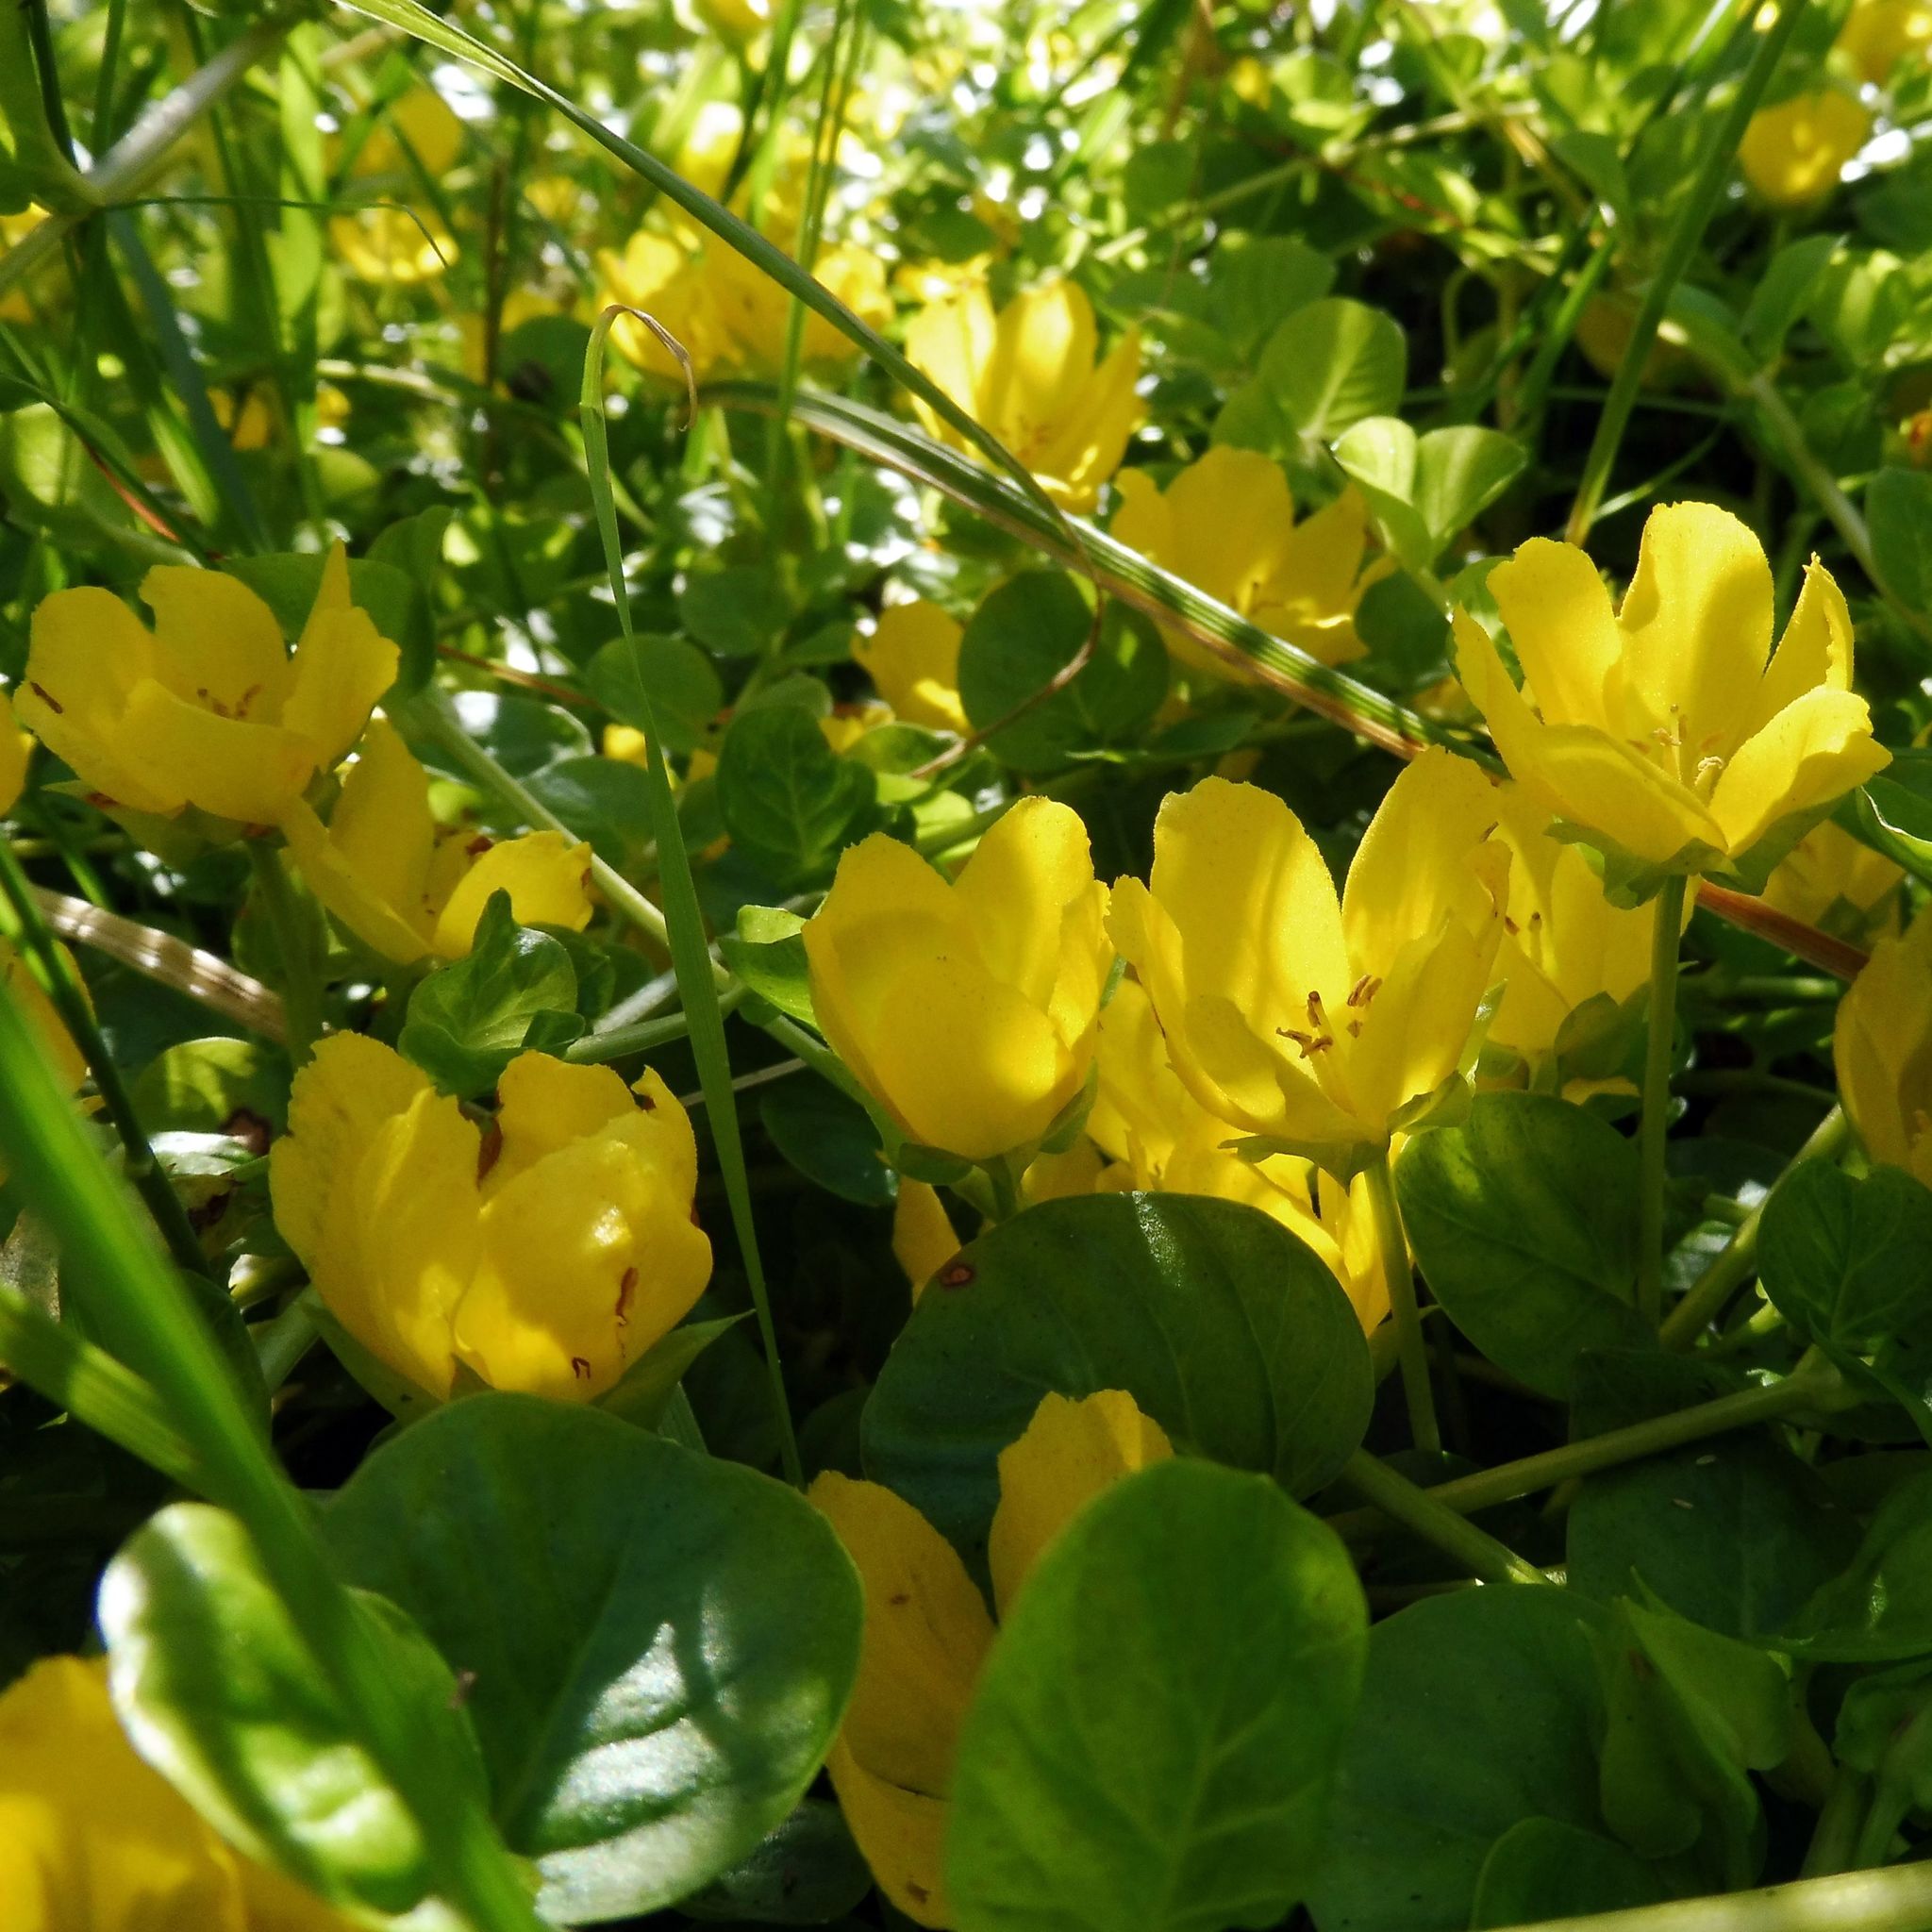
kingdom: Plantae
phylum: Tracheophyta
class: Magnoliopsida
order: Ericales
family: Primulaceae
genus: Lysimachia
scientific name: Lysimachia nummularia
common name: Moneywort
